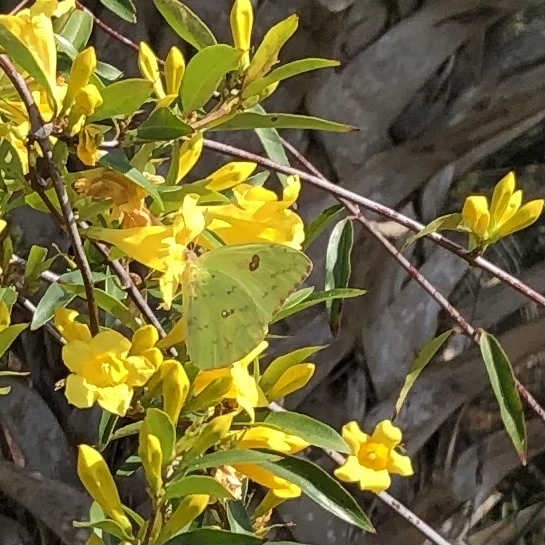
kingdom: Animalia
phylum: Arthropoda
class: Insecta
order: Lepidoptera
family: Pieridae
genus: Phoebis
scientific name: Phoebis sennae
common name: Cloudless sulphur
